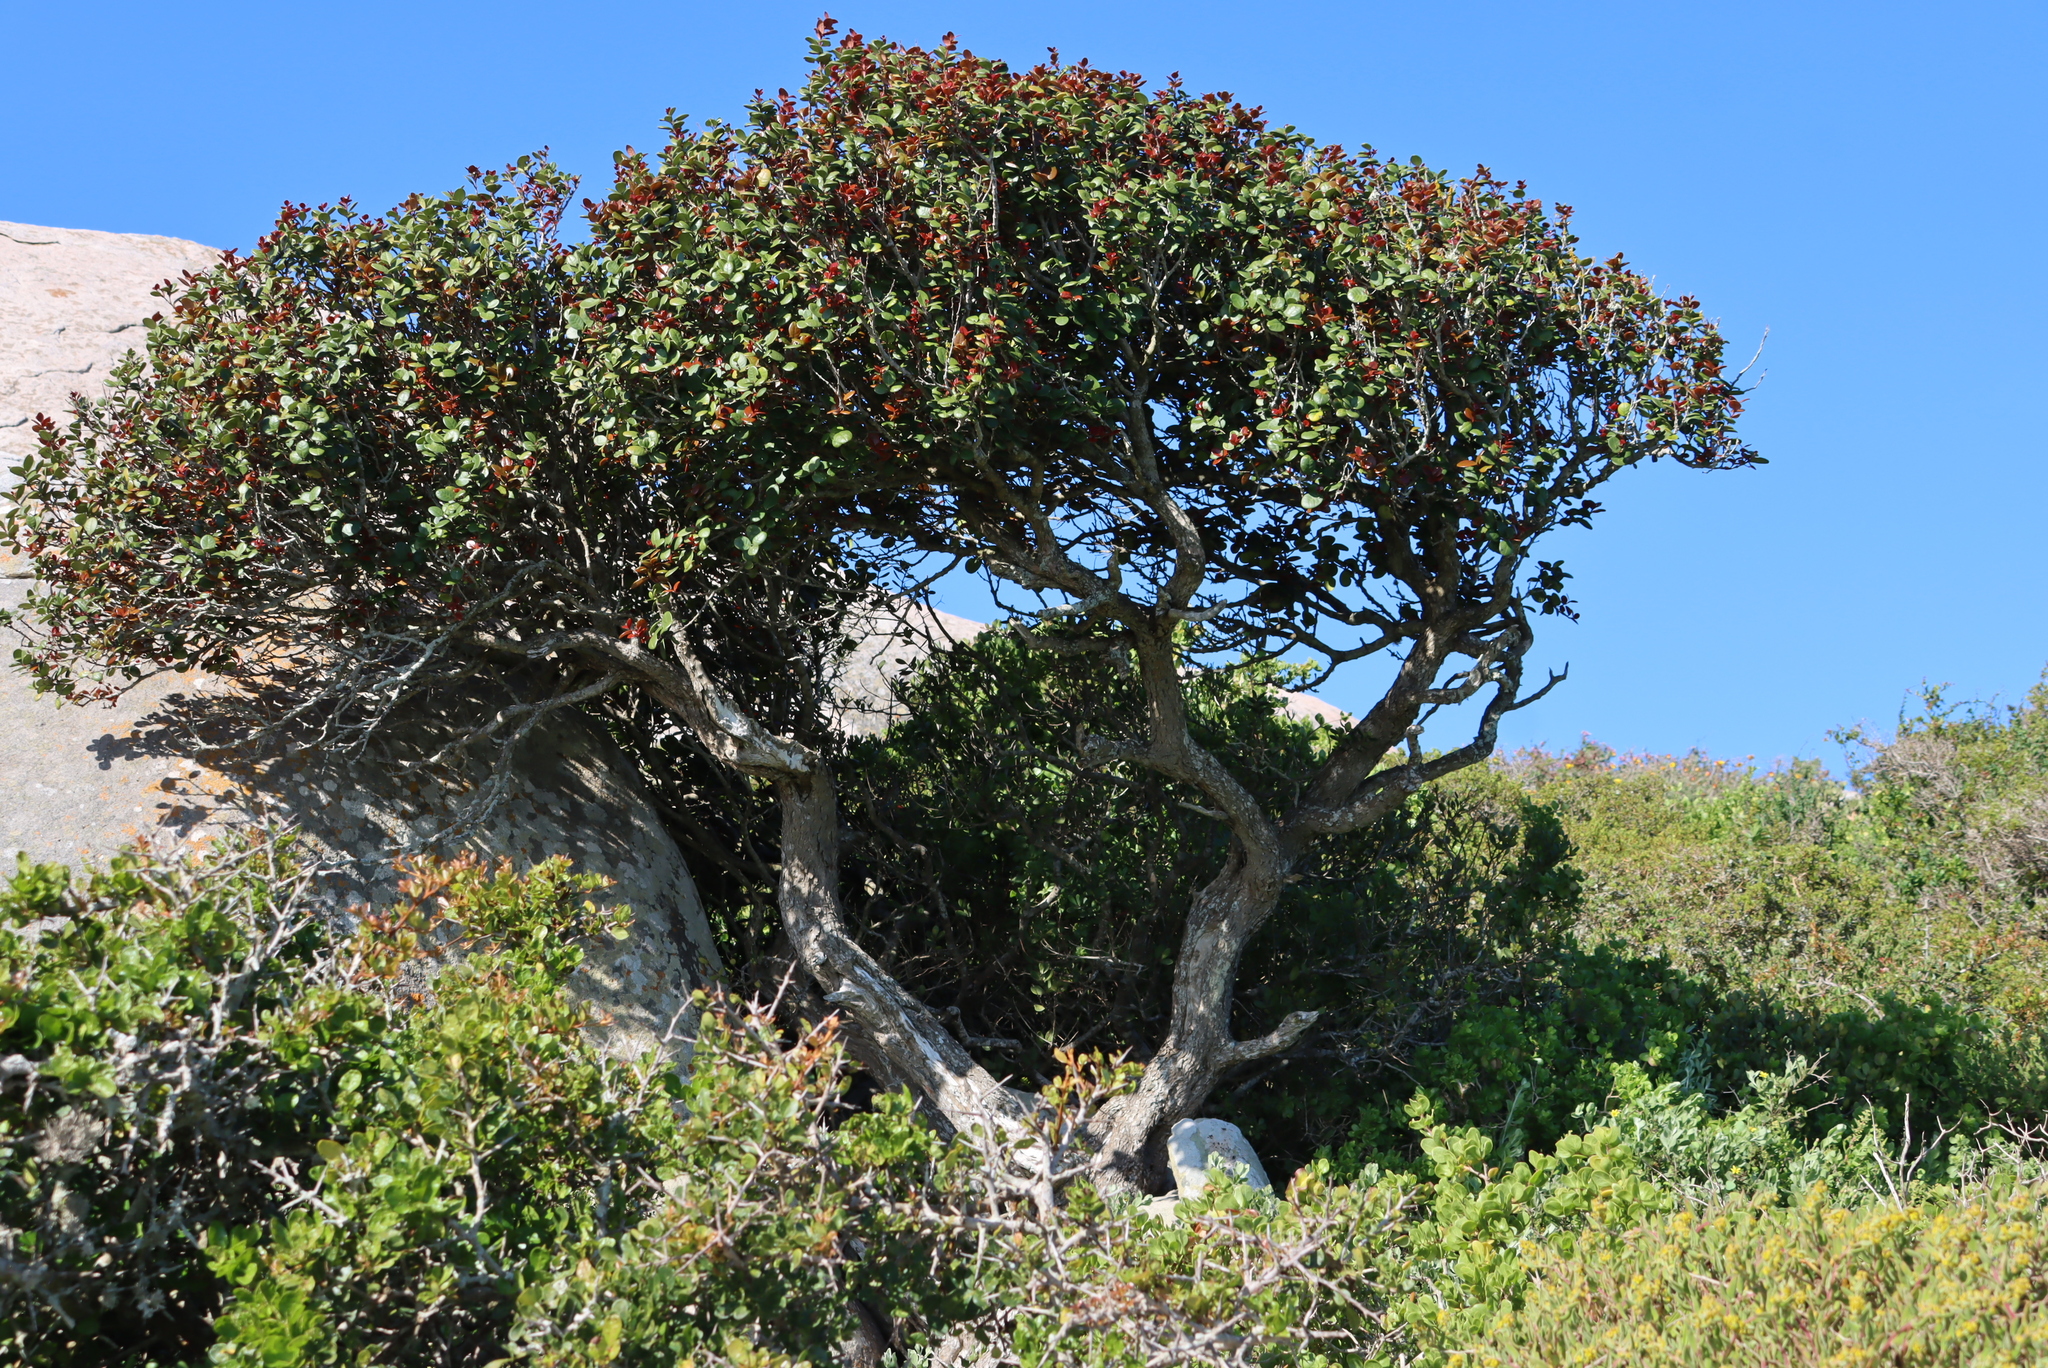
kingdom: Plantae
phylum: Tracheophyta
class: Magnoliopsida
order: Celastrales
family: Celastraceae
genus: Maurocenia
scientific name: Maurocenia frangula
